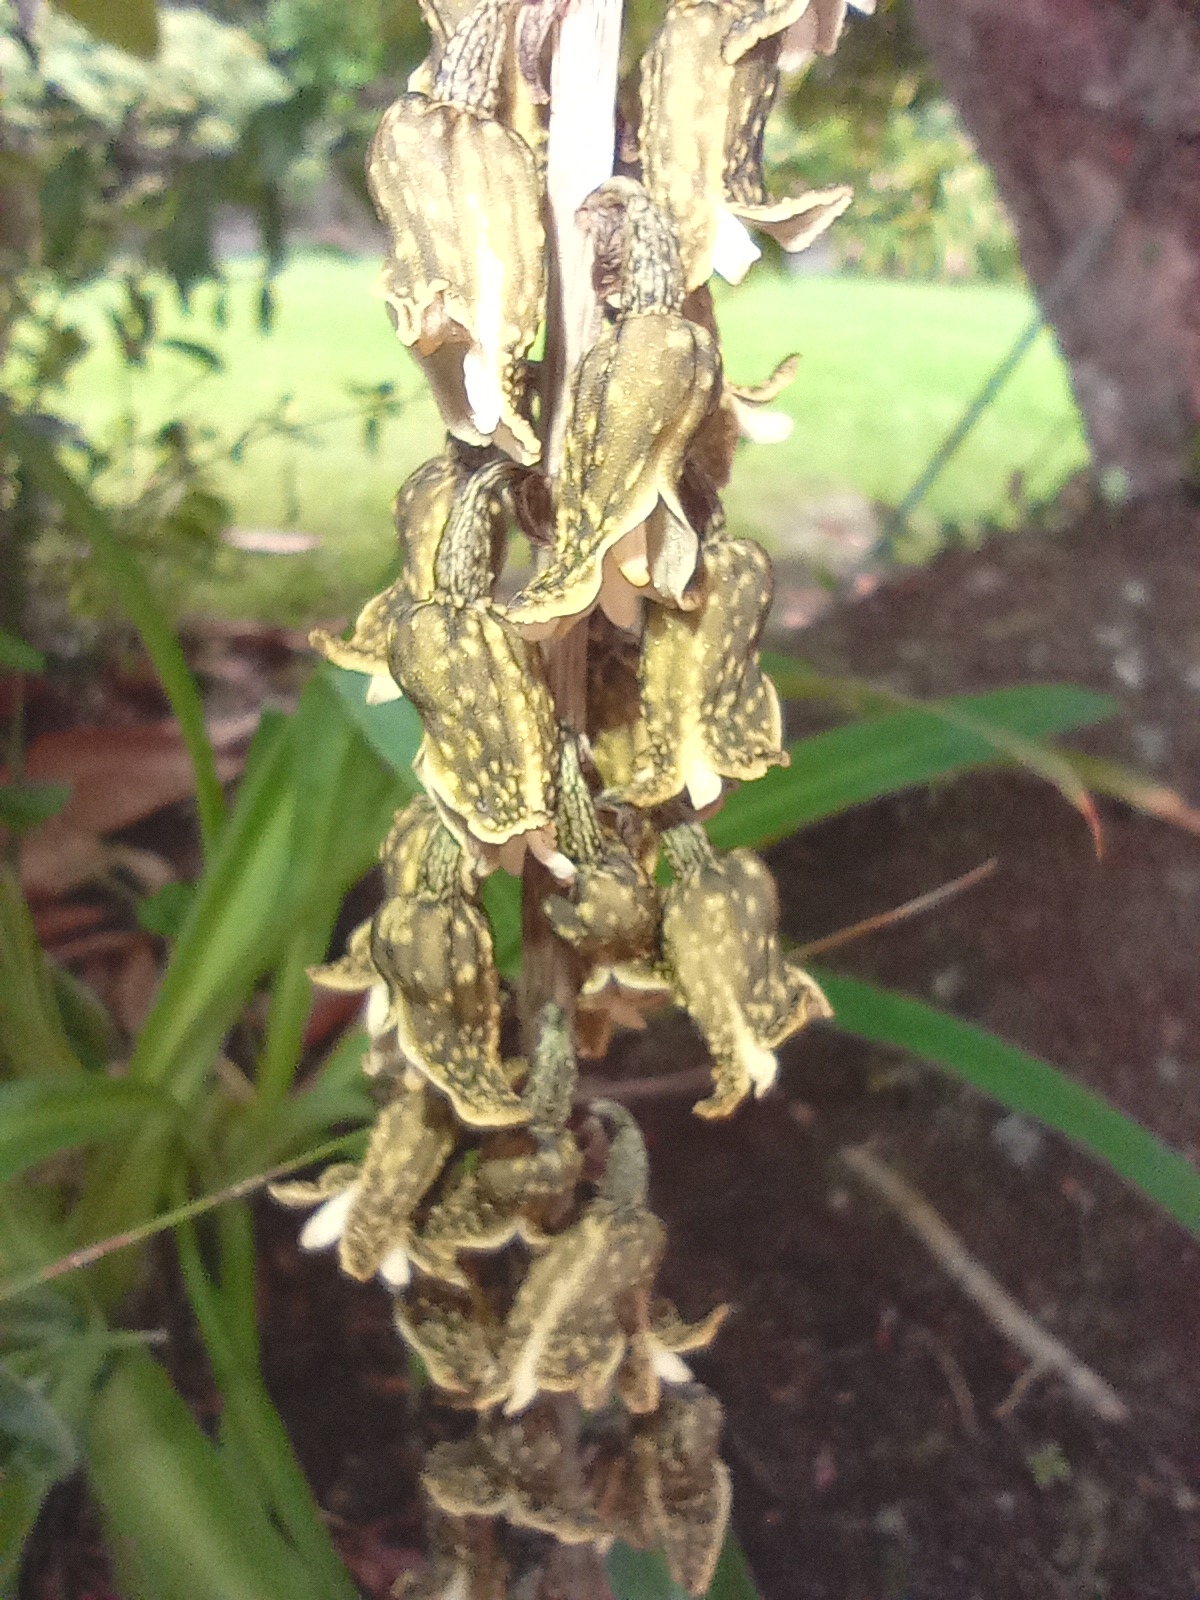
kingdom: Plantae
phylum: Tracheophyta
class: Liliopsida
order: Asparagales
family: Orchidaceae
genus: Gastrodia
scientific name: Gastrodia molloyi
